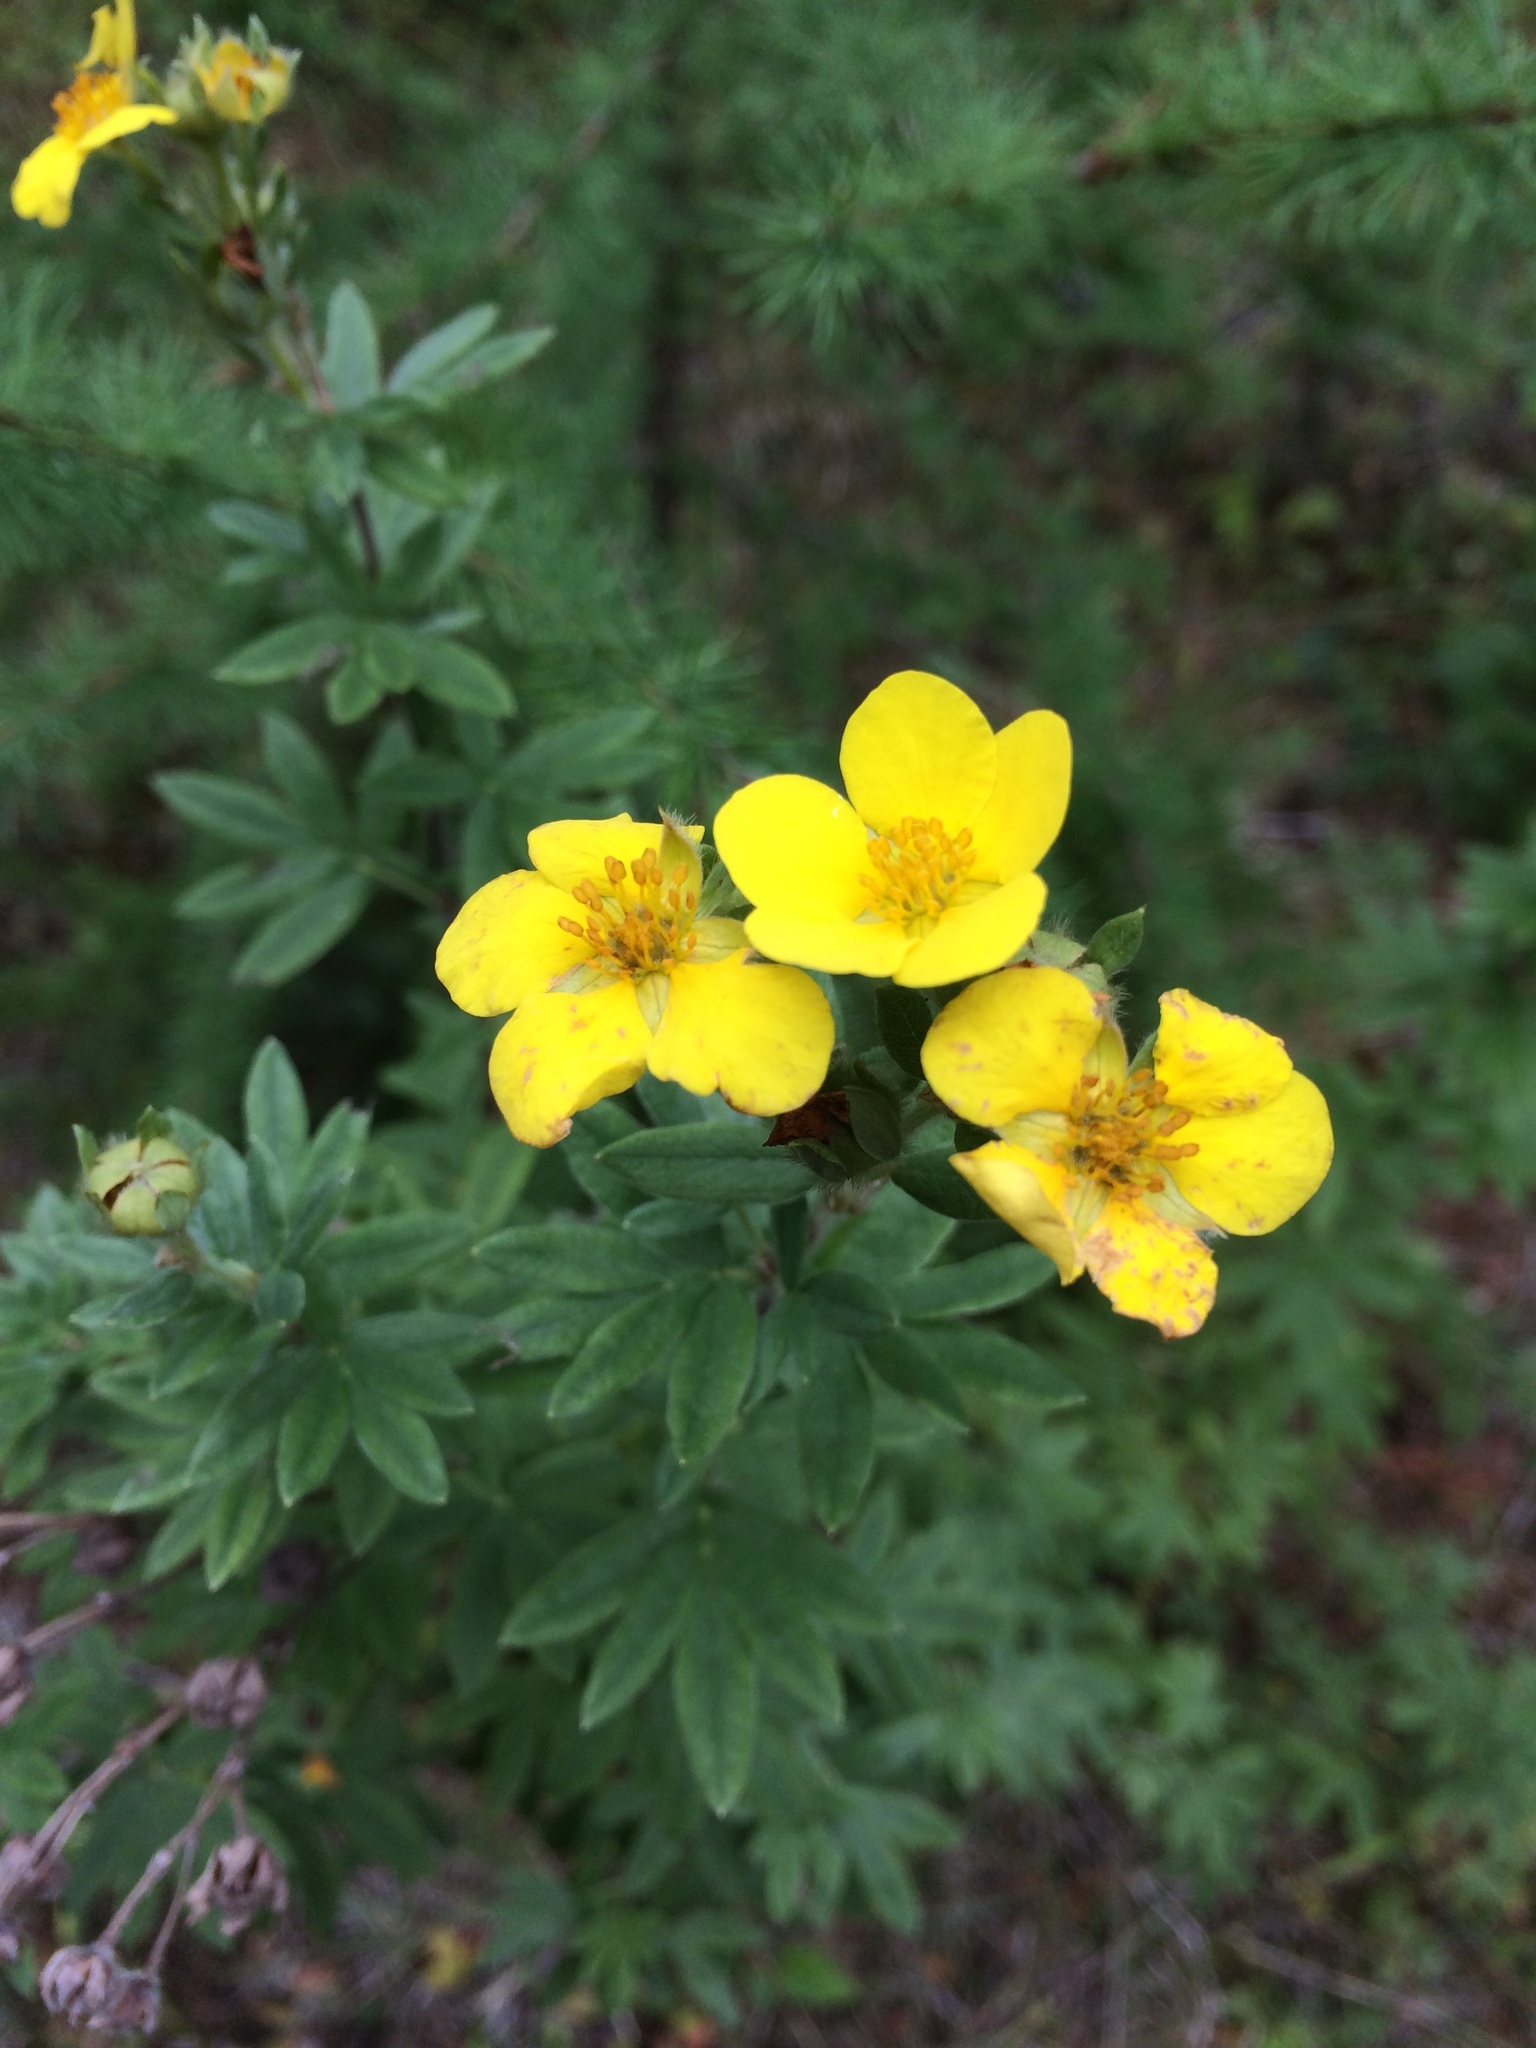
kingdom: Plantae
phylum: Tracheophyta
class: Magnoliopsida
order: Rosales
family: Rosaceae
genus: Dasiphora
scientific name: Dasiphora fruticosa
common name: Shrubby cinquefoil
